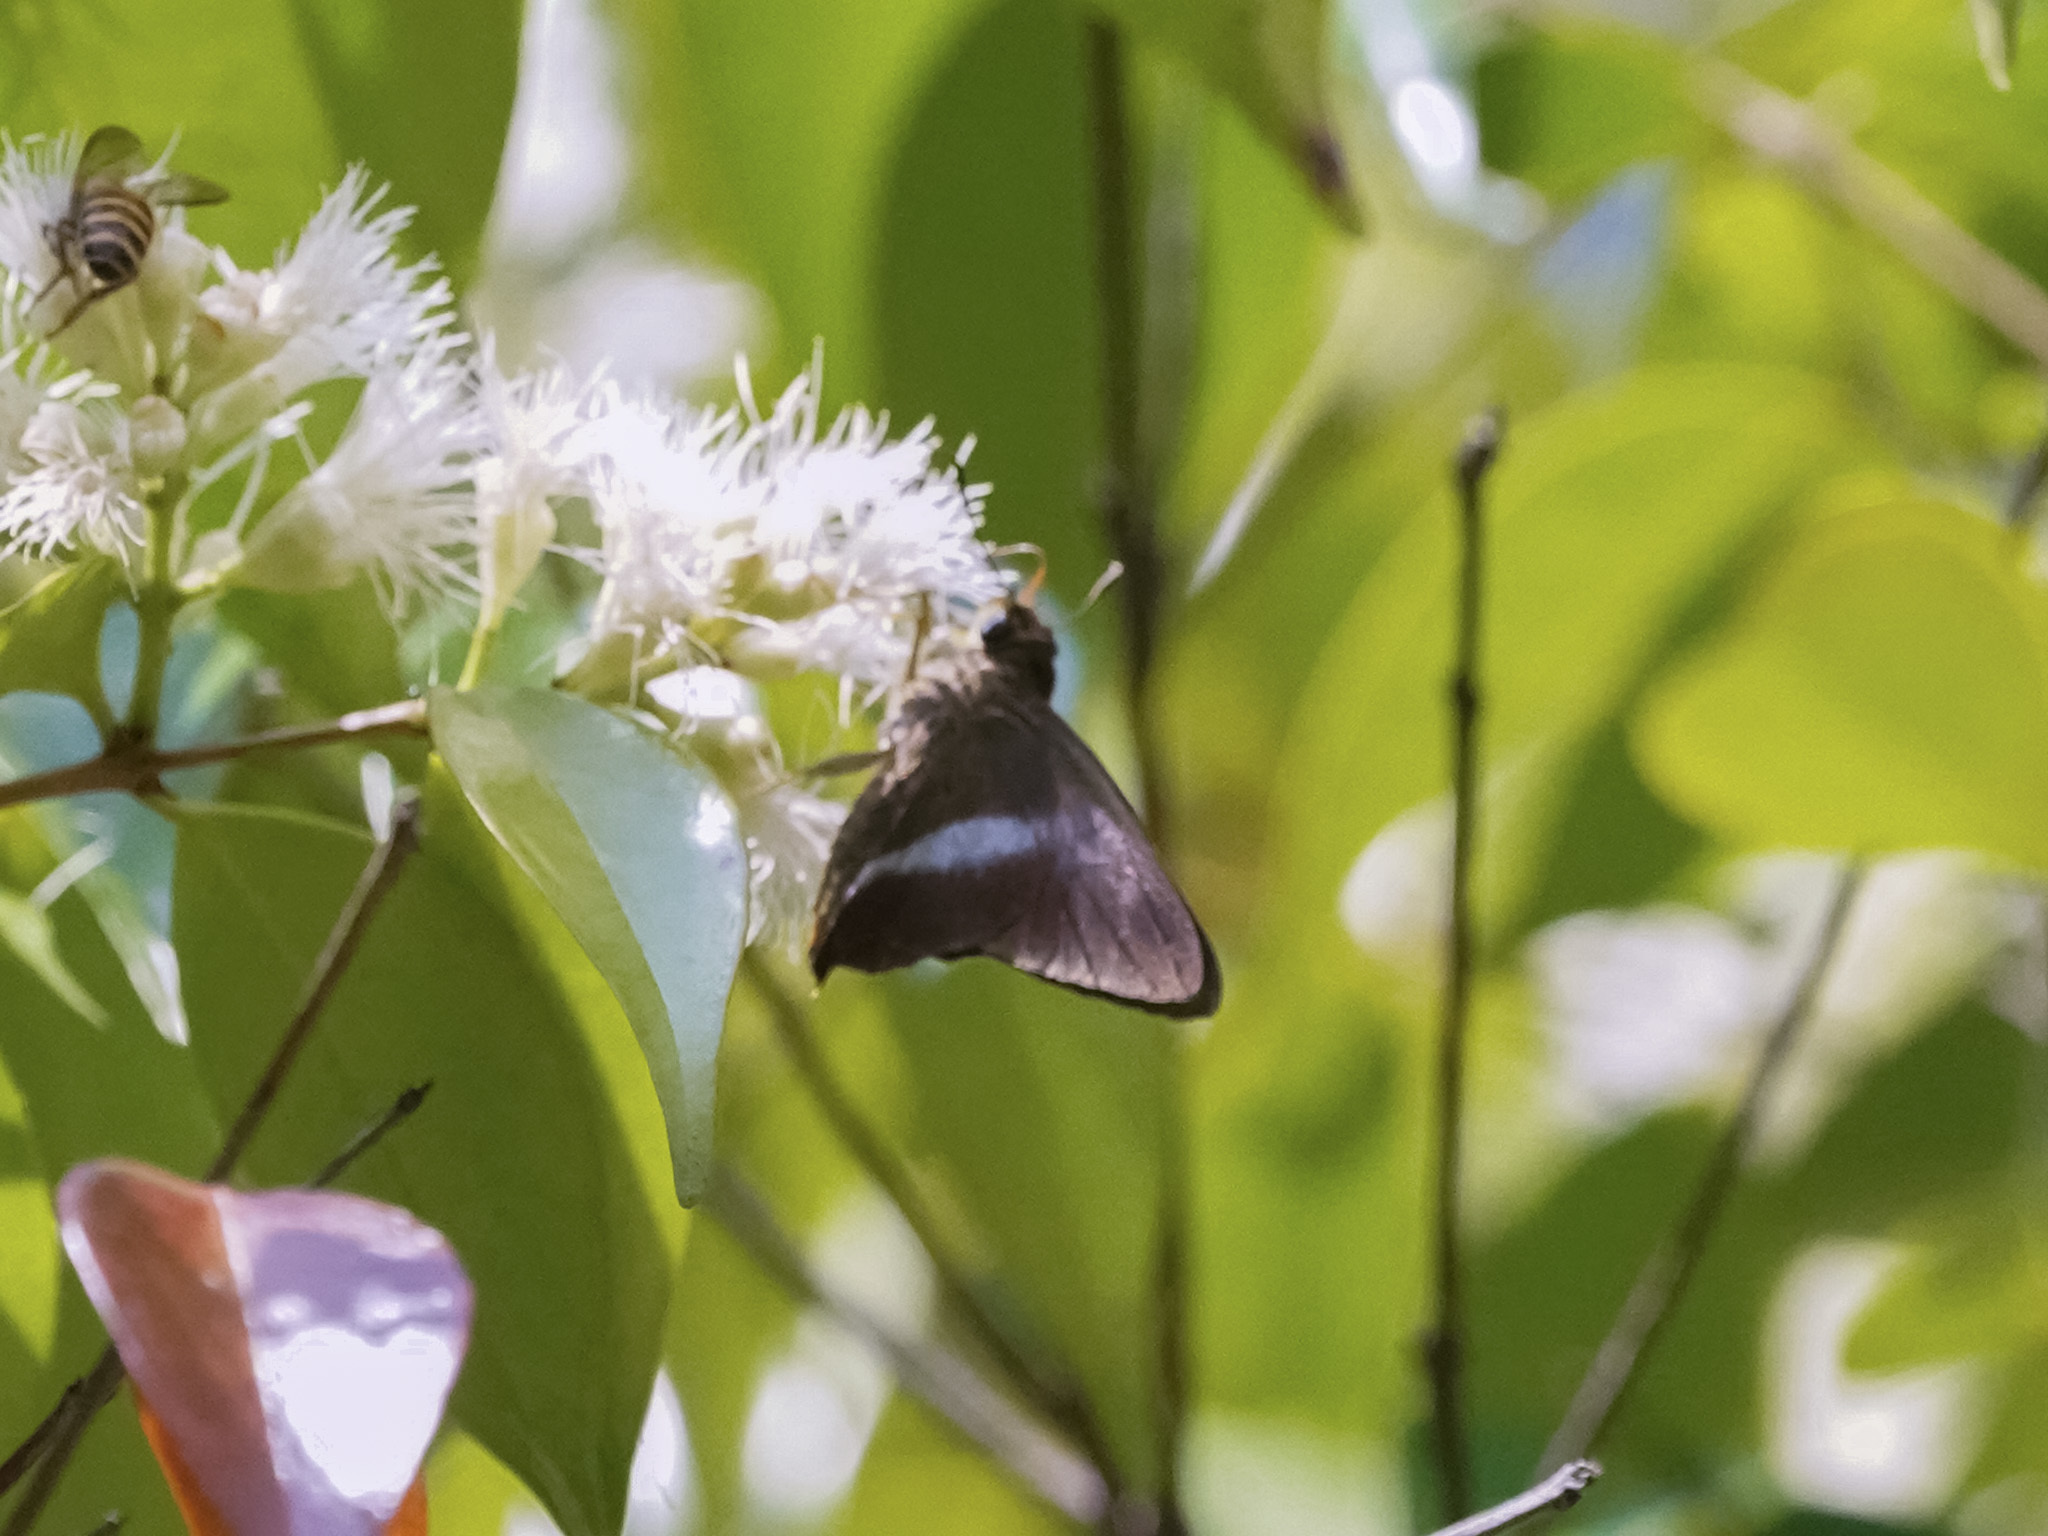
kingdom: Animalia
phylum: Arthropoda
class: Insecta
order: Lepidoptera
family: Hesperiidae
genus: Bibasis
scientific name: Bibasis sena
